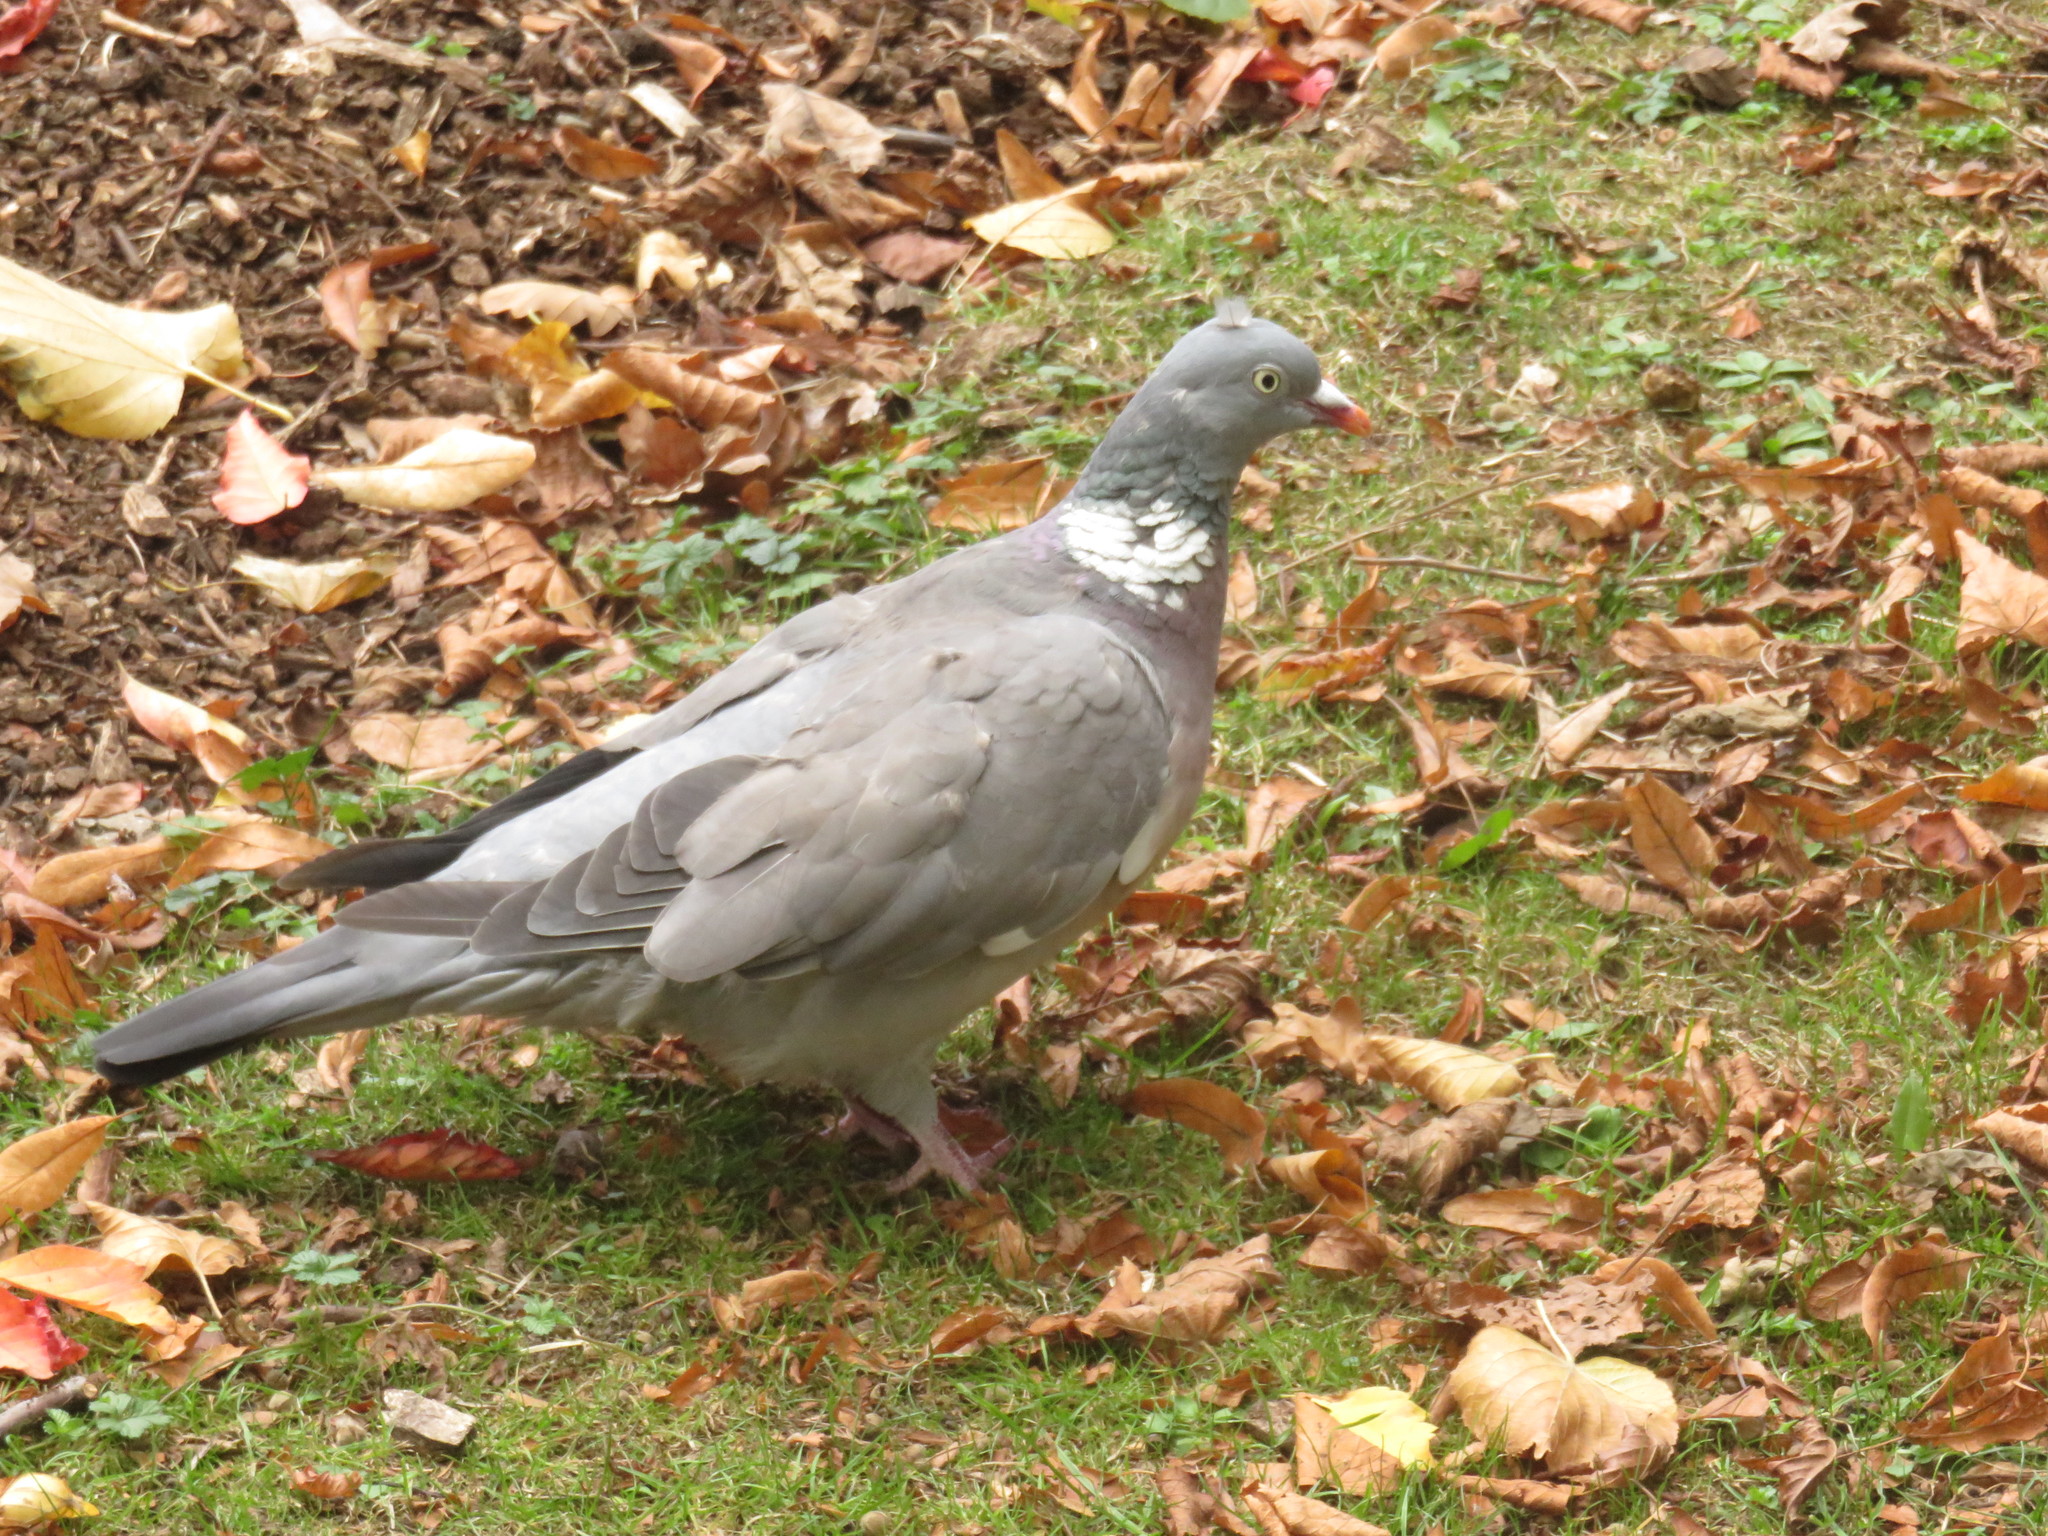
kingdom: Animalia
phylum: Chordata
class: Aves
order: Columbiformes
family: Columbidae
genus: Columba
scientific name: Columba palumbus
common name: Common wood pigeon
